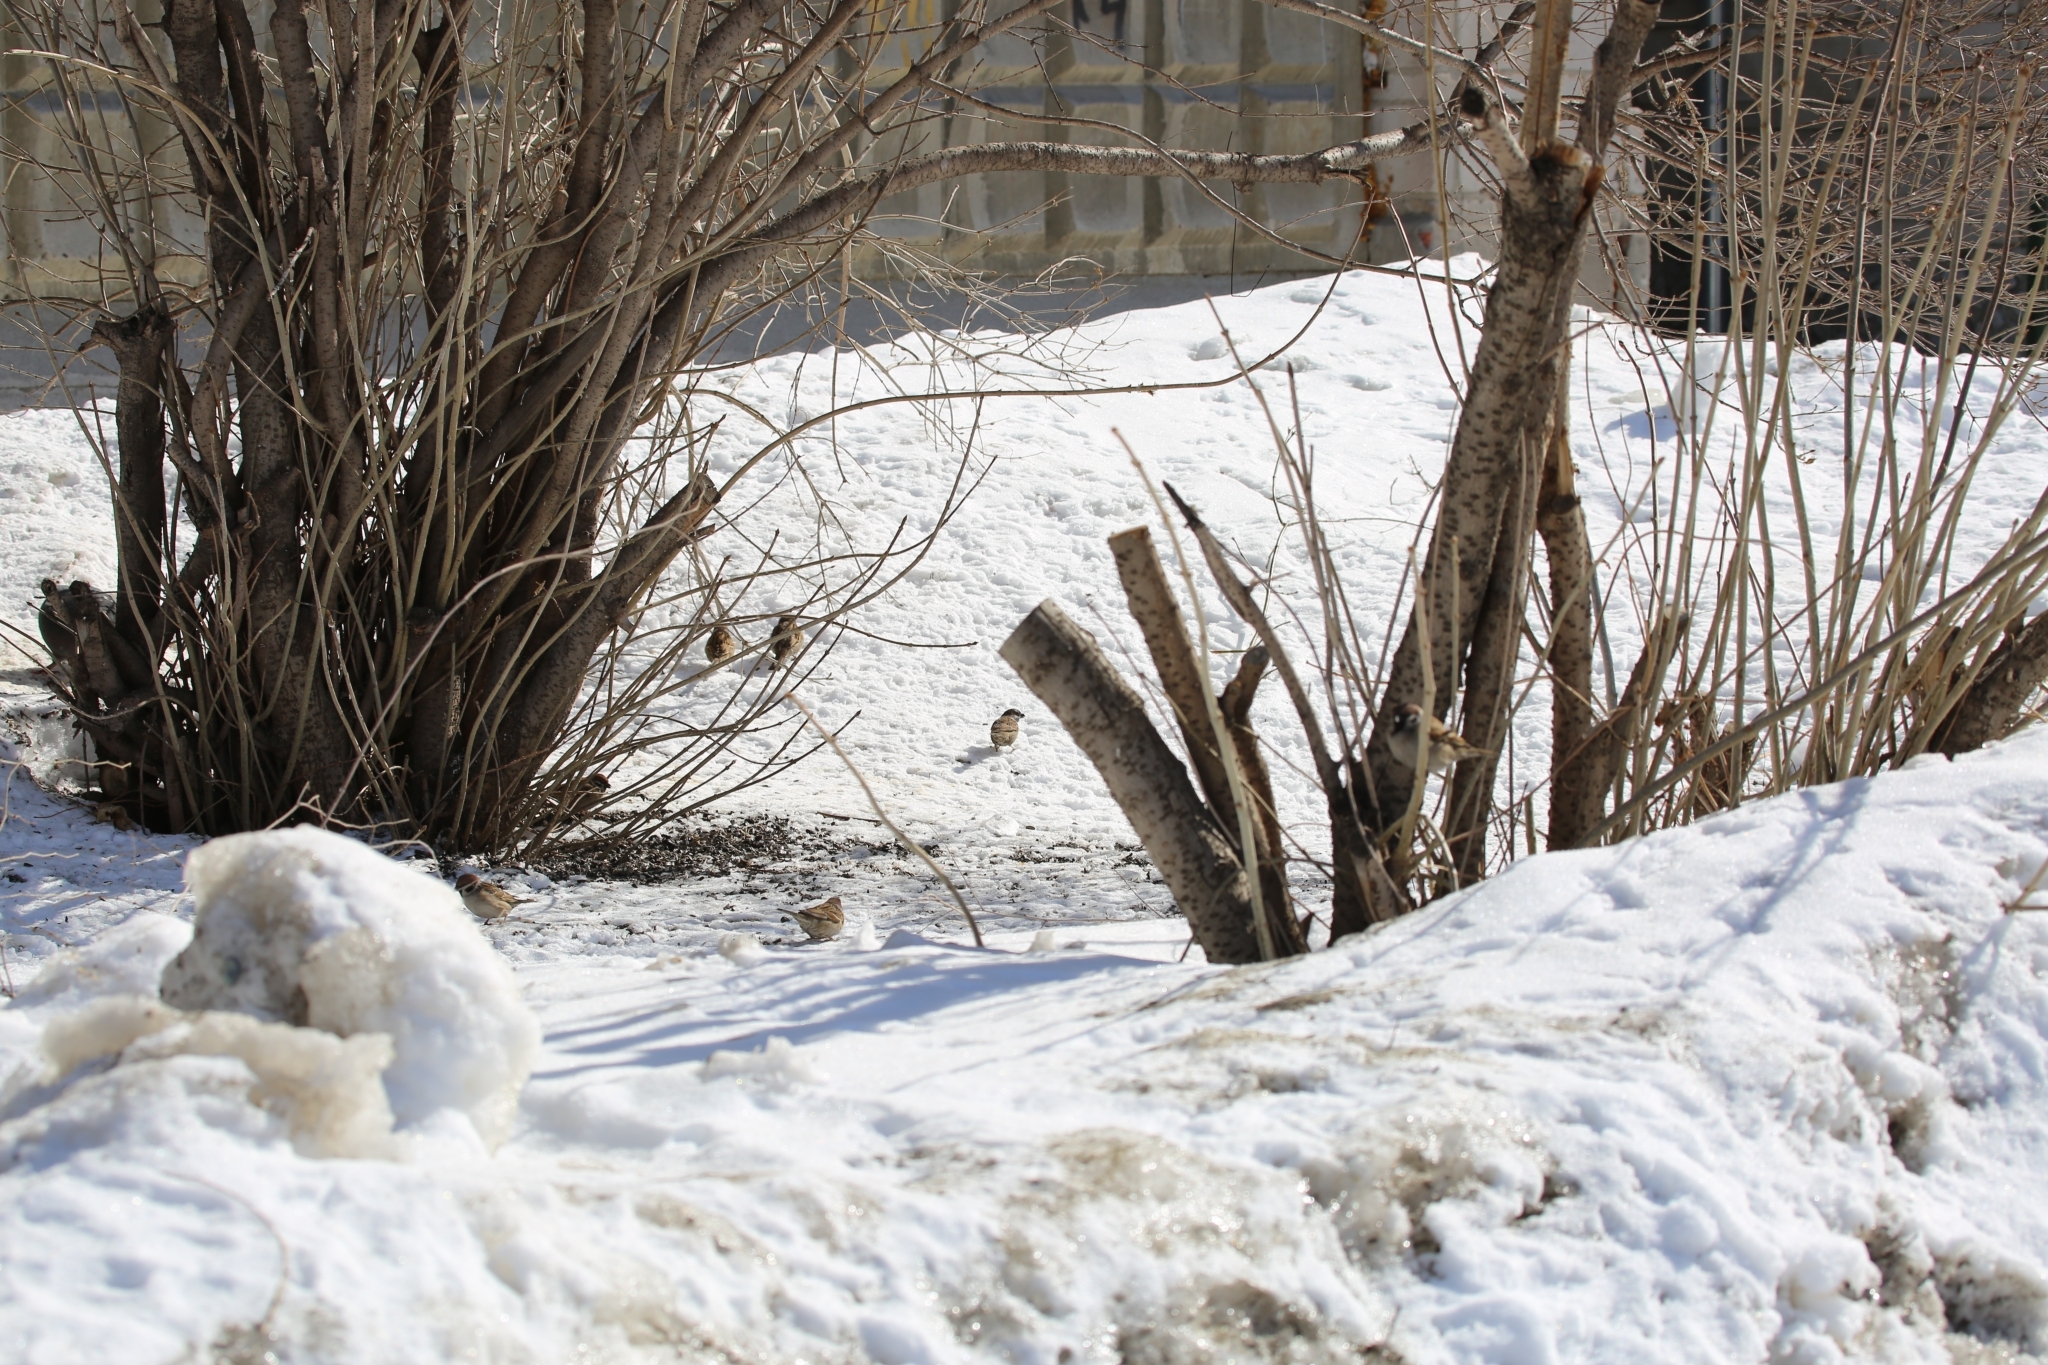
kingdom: Animalia
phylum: Chordata
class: Aves
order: Passeriformes
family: Passeridae
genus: Passer
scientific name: Passer montanus
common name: Eurasian tree sparrow
